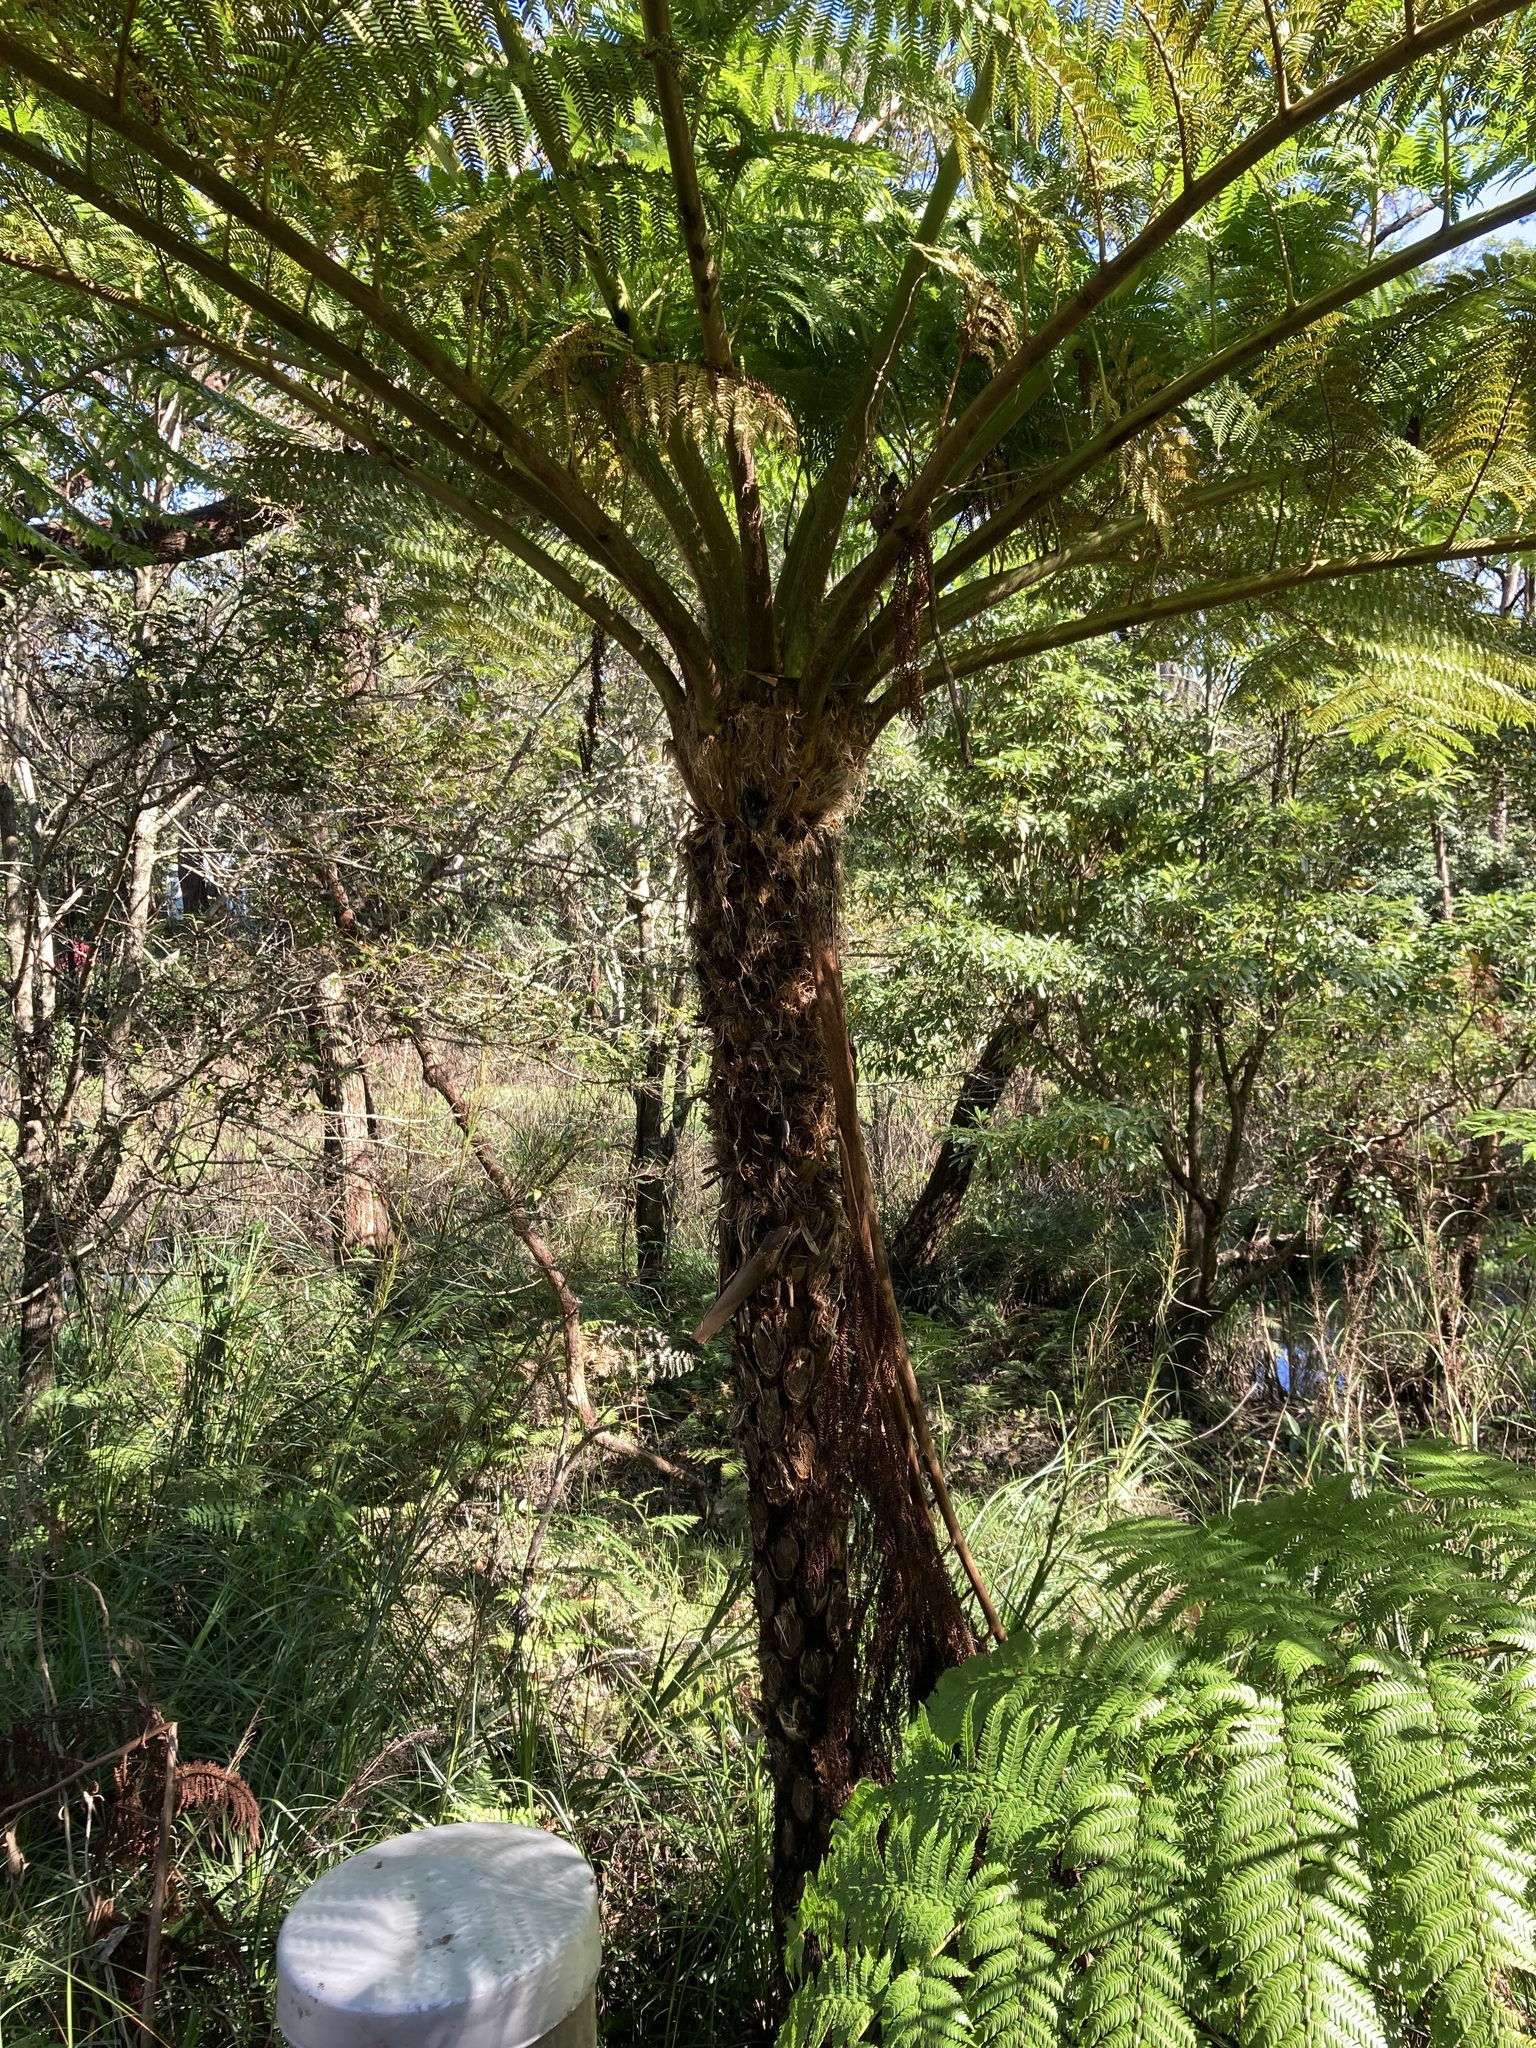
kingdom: Plantae
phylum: Tracheophyta
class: Polypodiopsida
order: Cyatheales
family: Cyatheaceae
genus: Sphaeropteris
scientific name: Sphaeropteris cooperi
